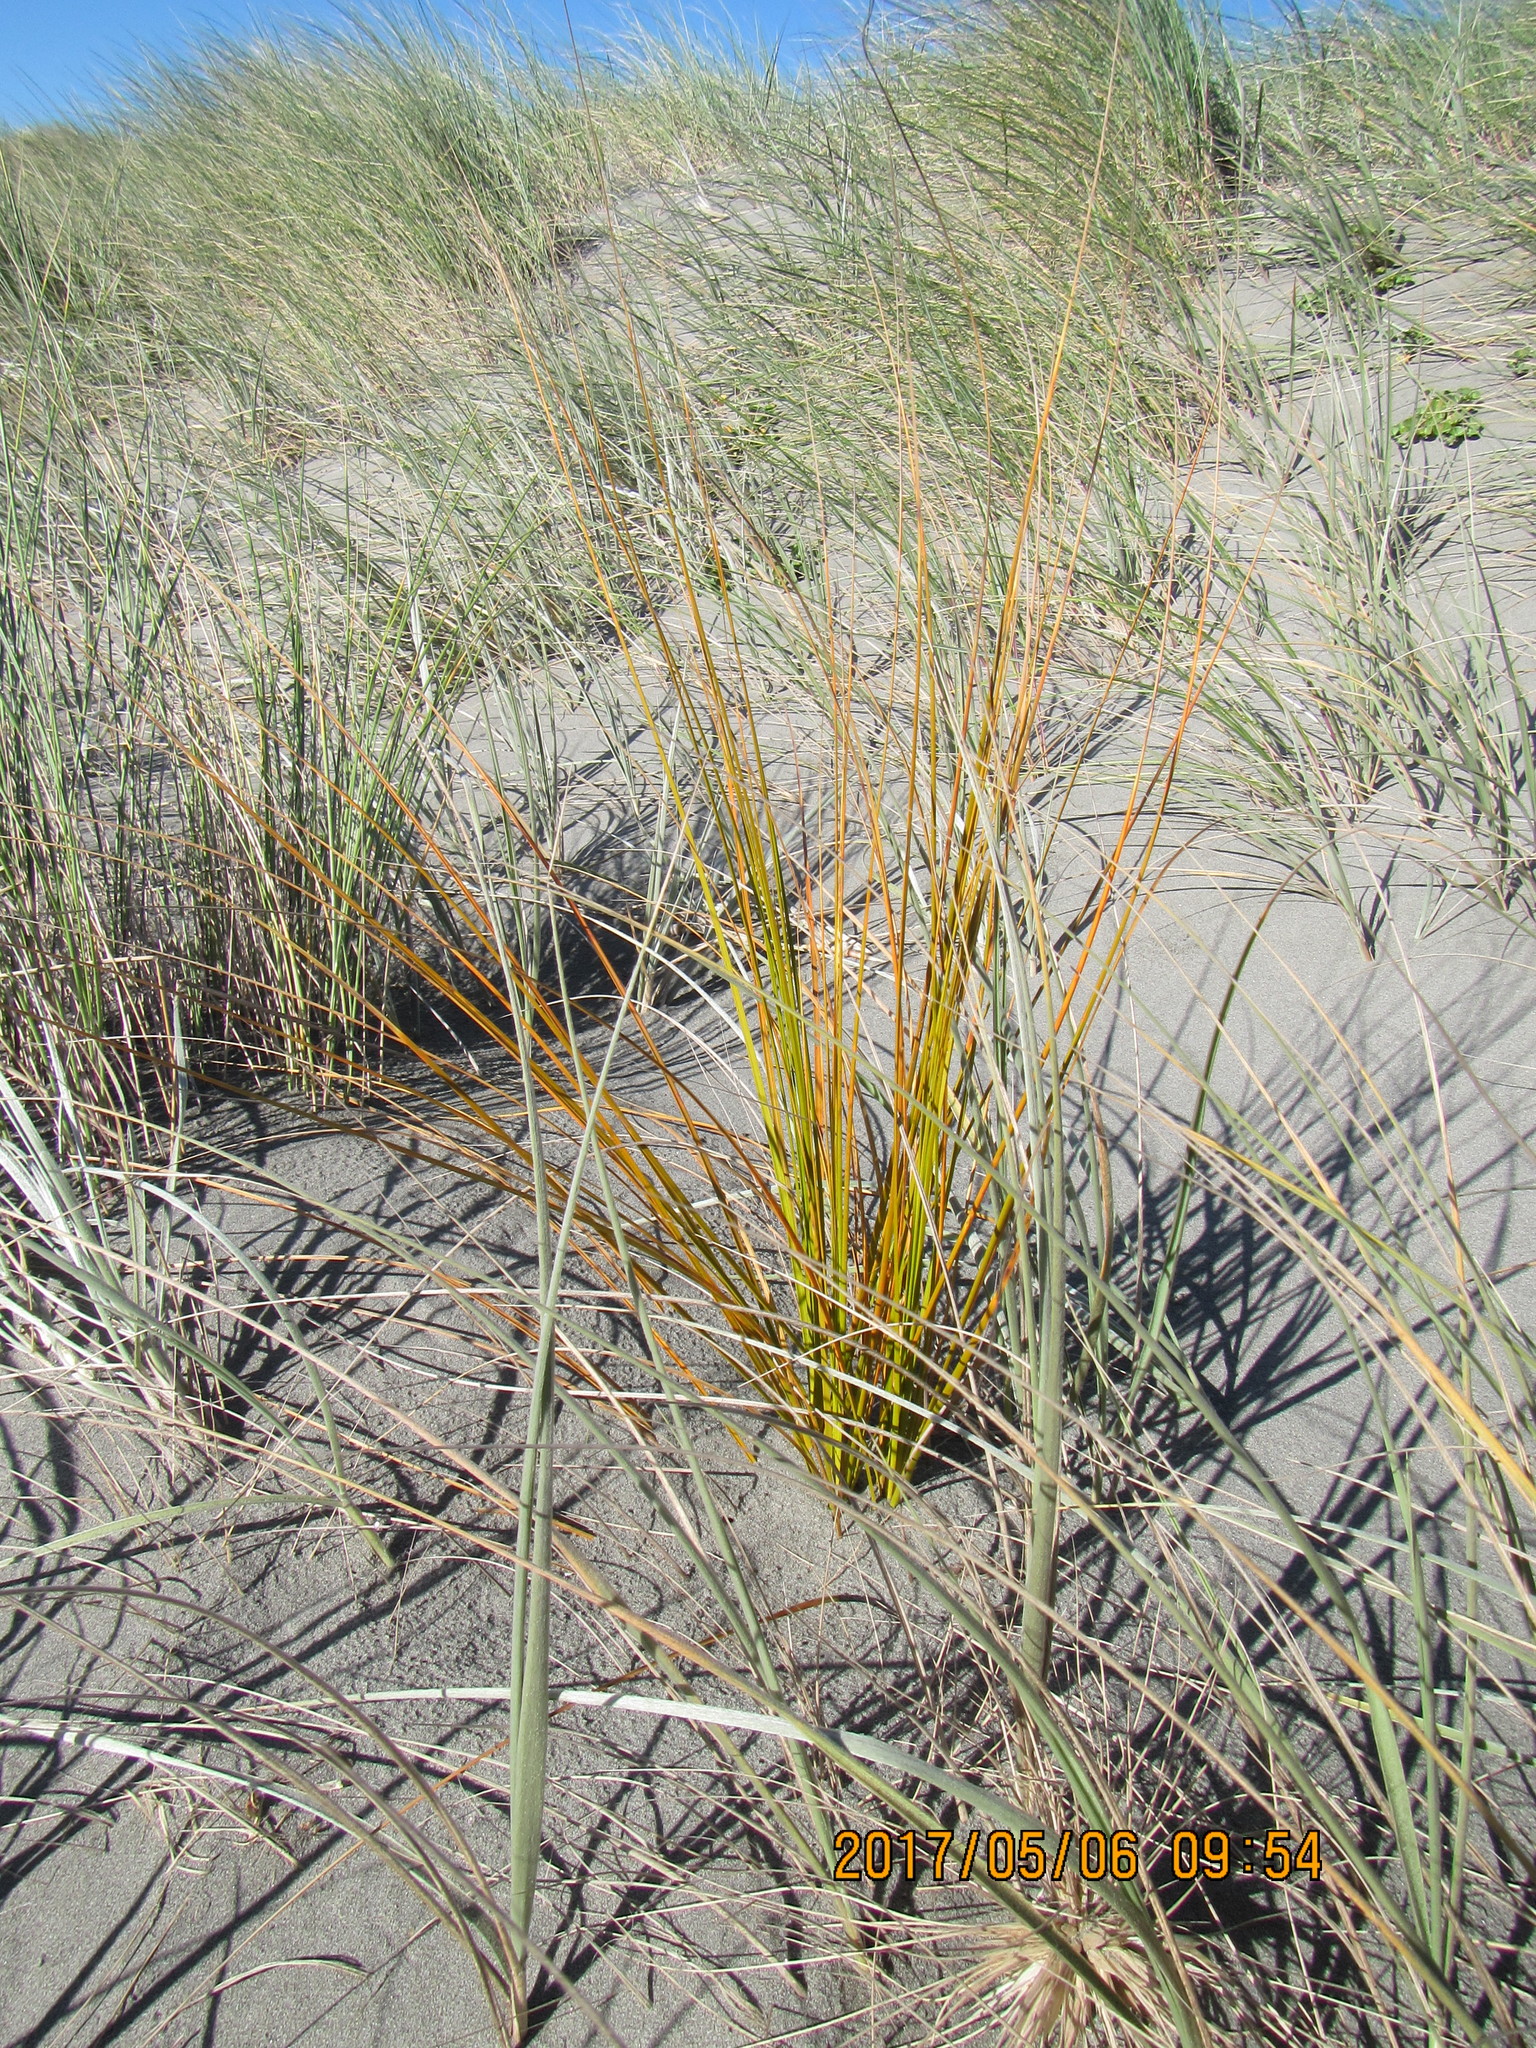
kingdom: Plantae
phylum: Tracheophyta
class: Liliopsida
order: Poales
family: Cyperaceae
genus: Ficinia
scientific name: Ficinia spiralis
